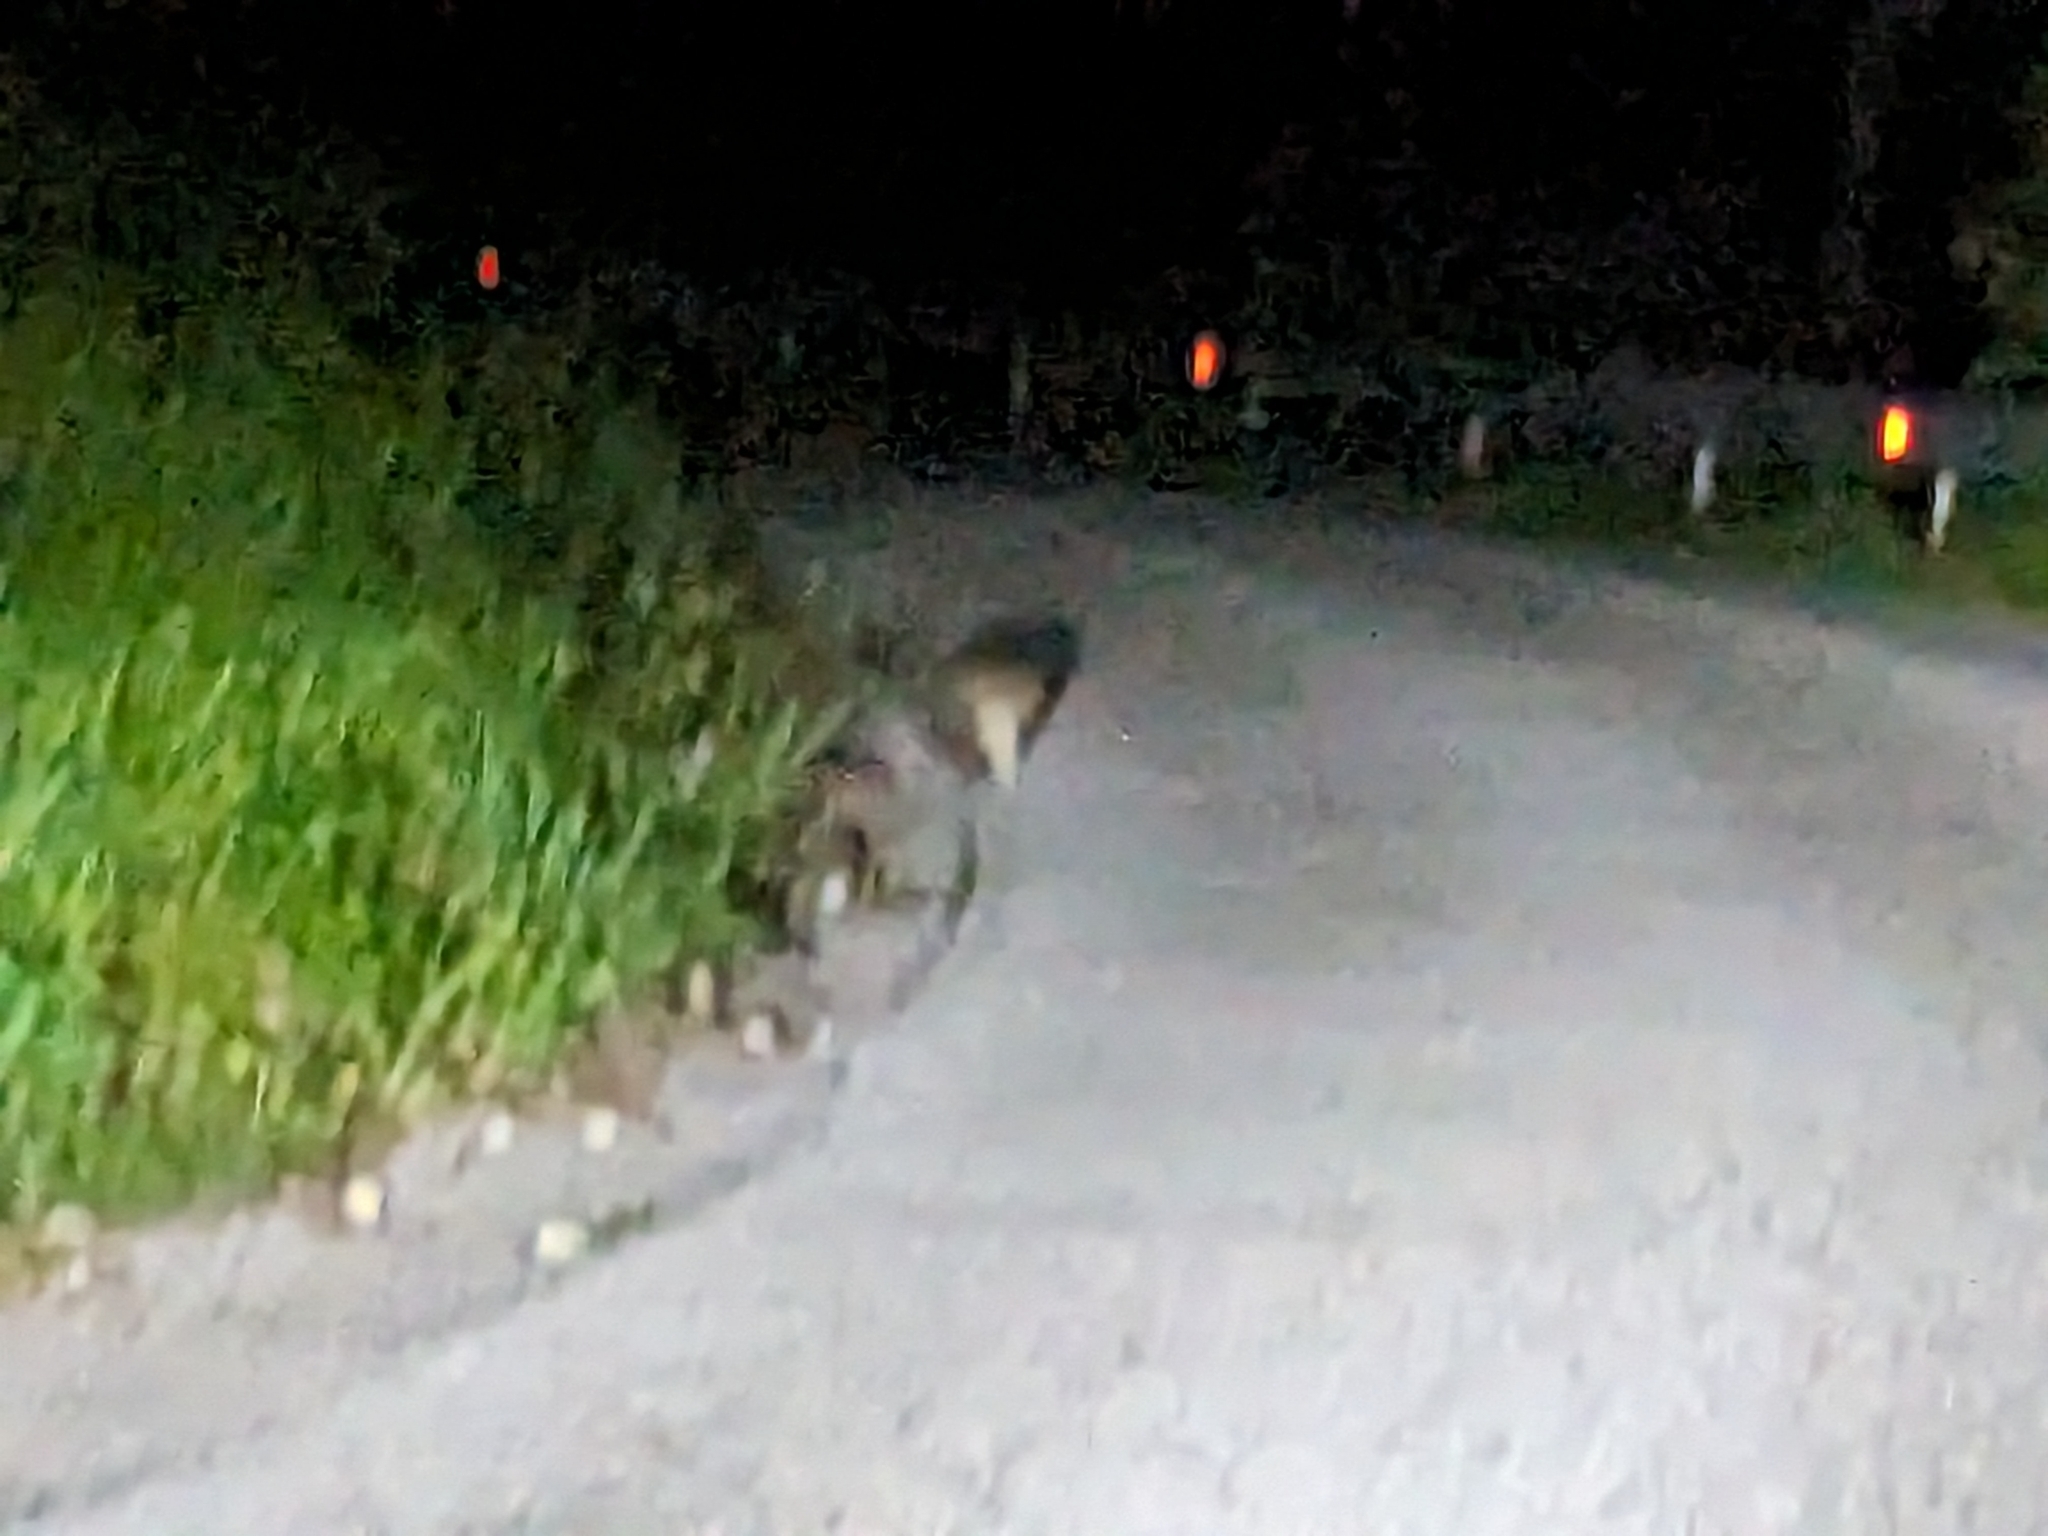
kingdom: Animalia
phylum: Chordata
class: Mammalia
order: Carnivora
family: Mustelidae
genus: Meles
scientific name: Meles meles
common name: Eurasian badger
